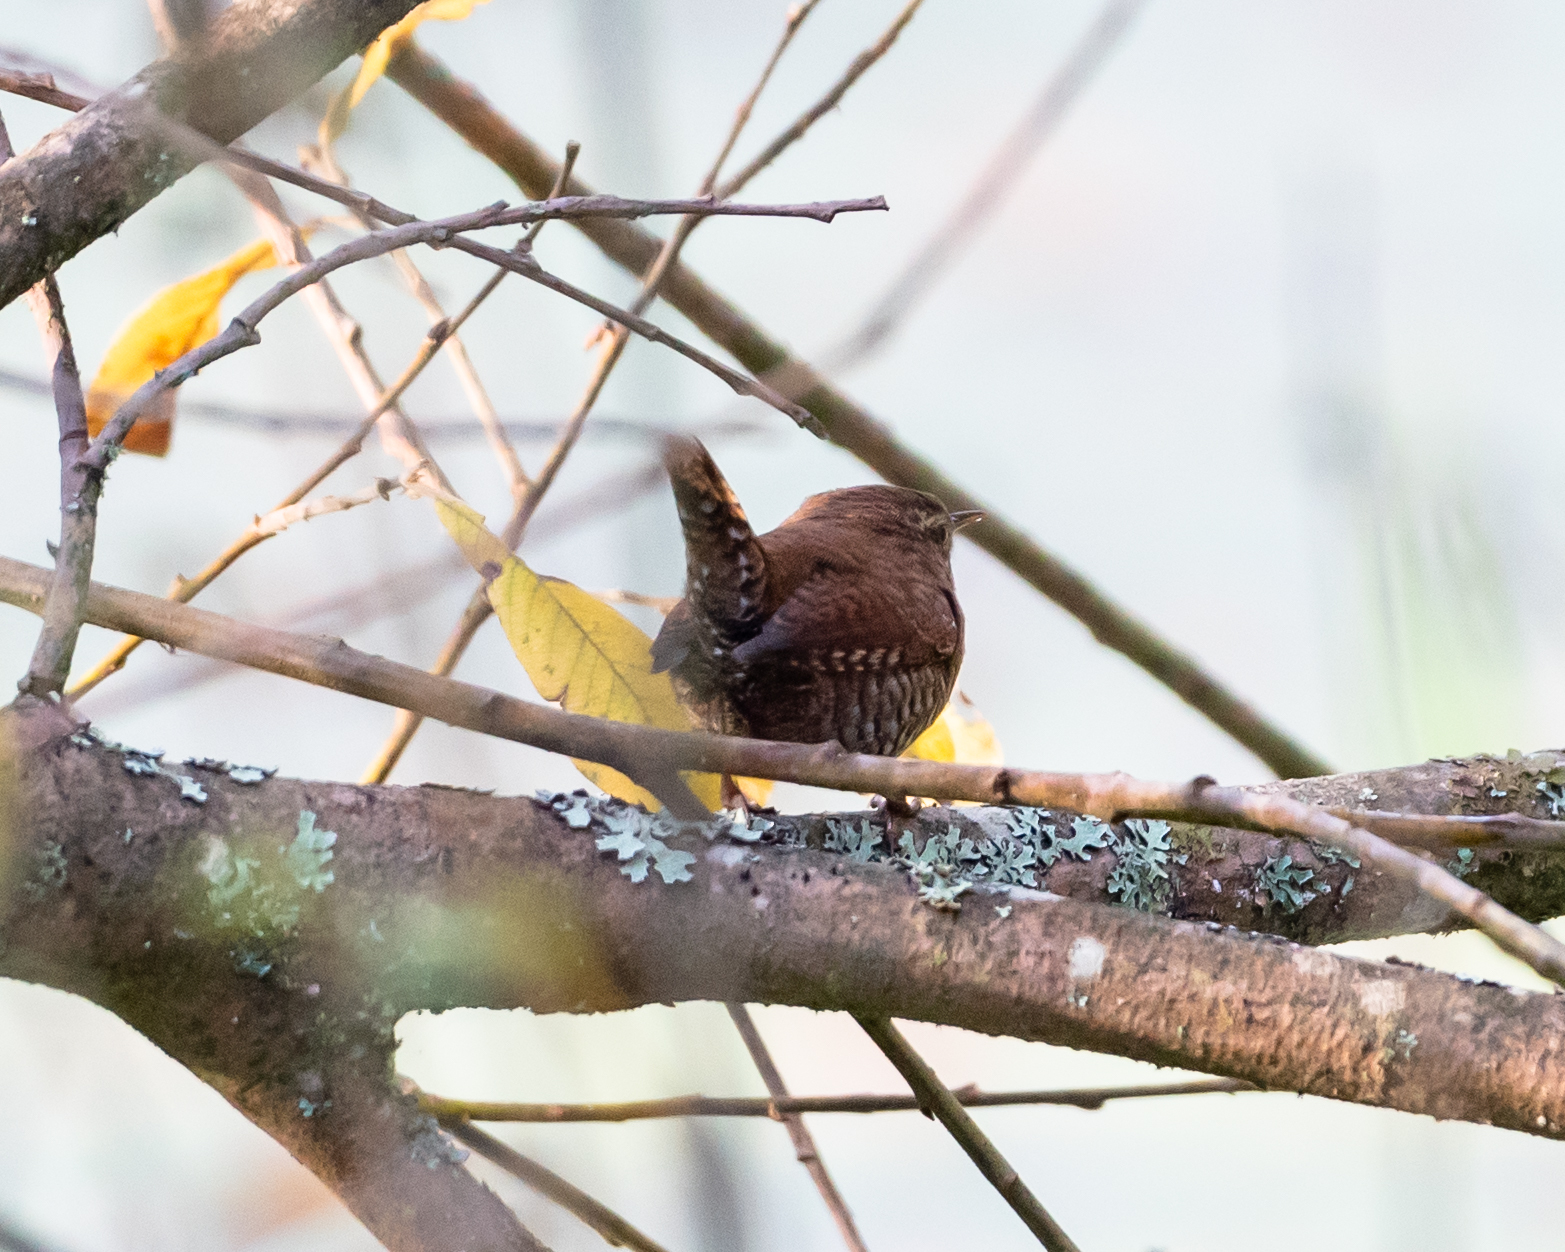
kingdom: Animalia
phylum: Chordata
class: Aves
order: Passeriformes
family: Troglodytidae
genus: Troglodytes
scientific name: Troglodytes troglodytes
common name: Eurasian wren
